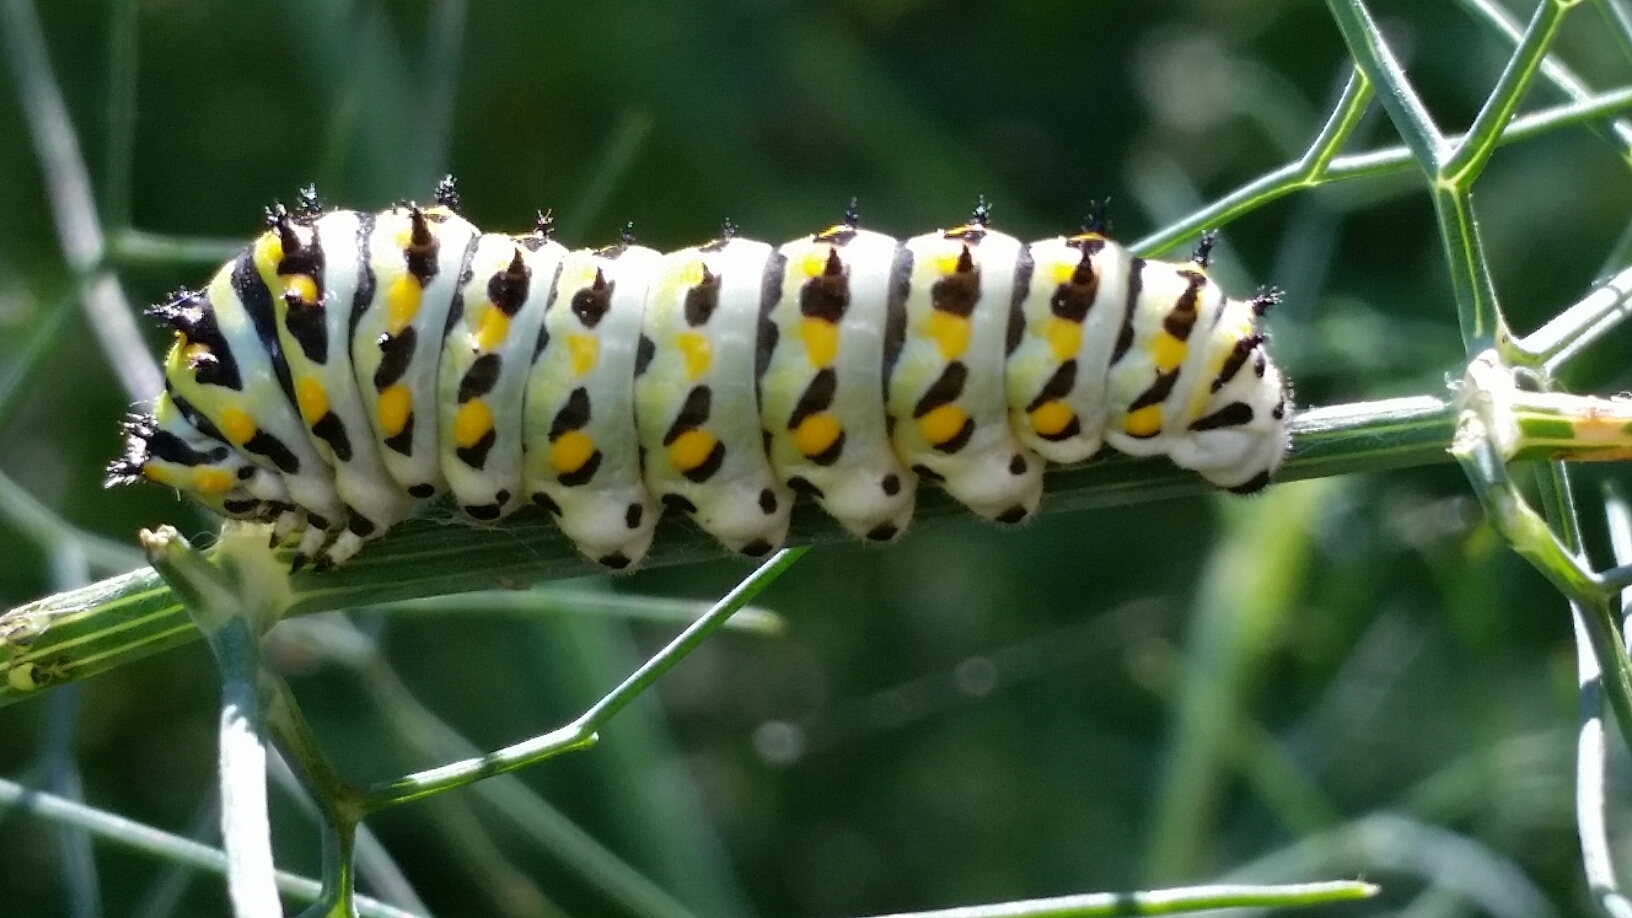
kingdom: Animalia
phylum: Arthropoda
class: Insecta
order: Lepidoptera
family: Papilionidae
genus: Papilio
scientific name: Papilio zelicaon
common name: Anise swallowtail
